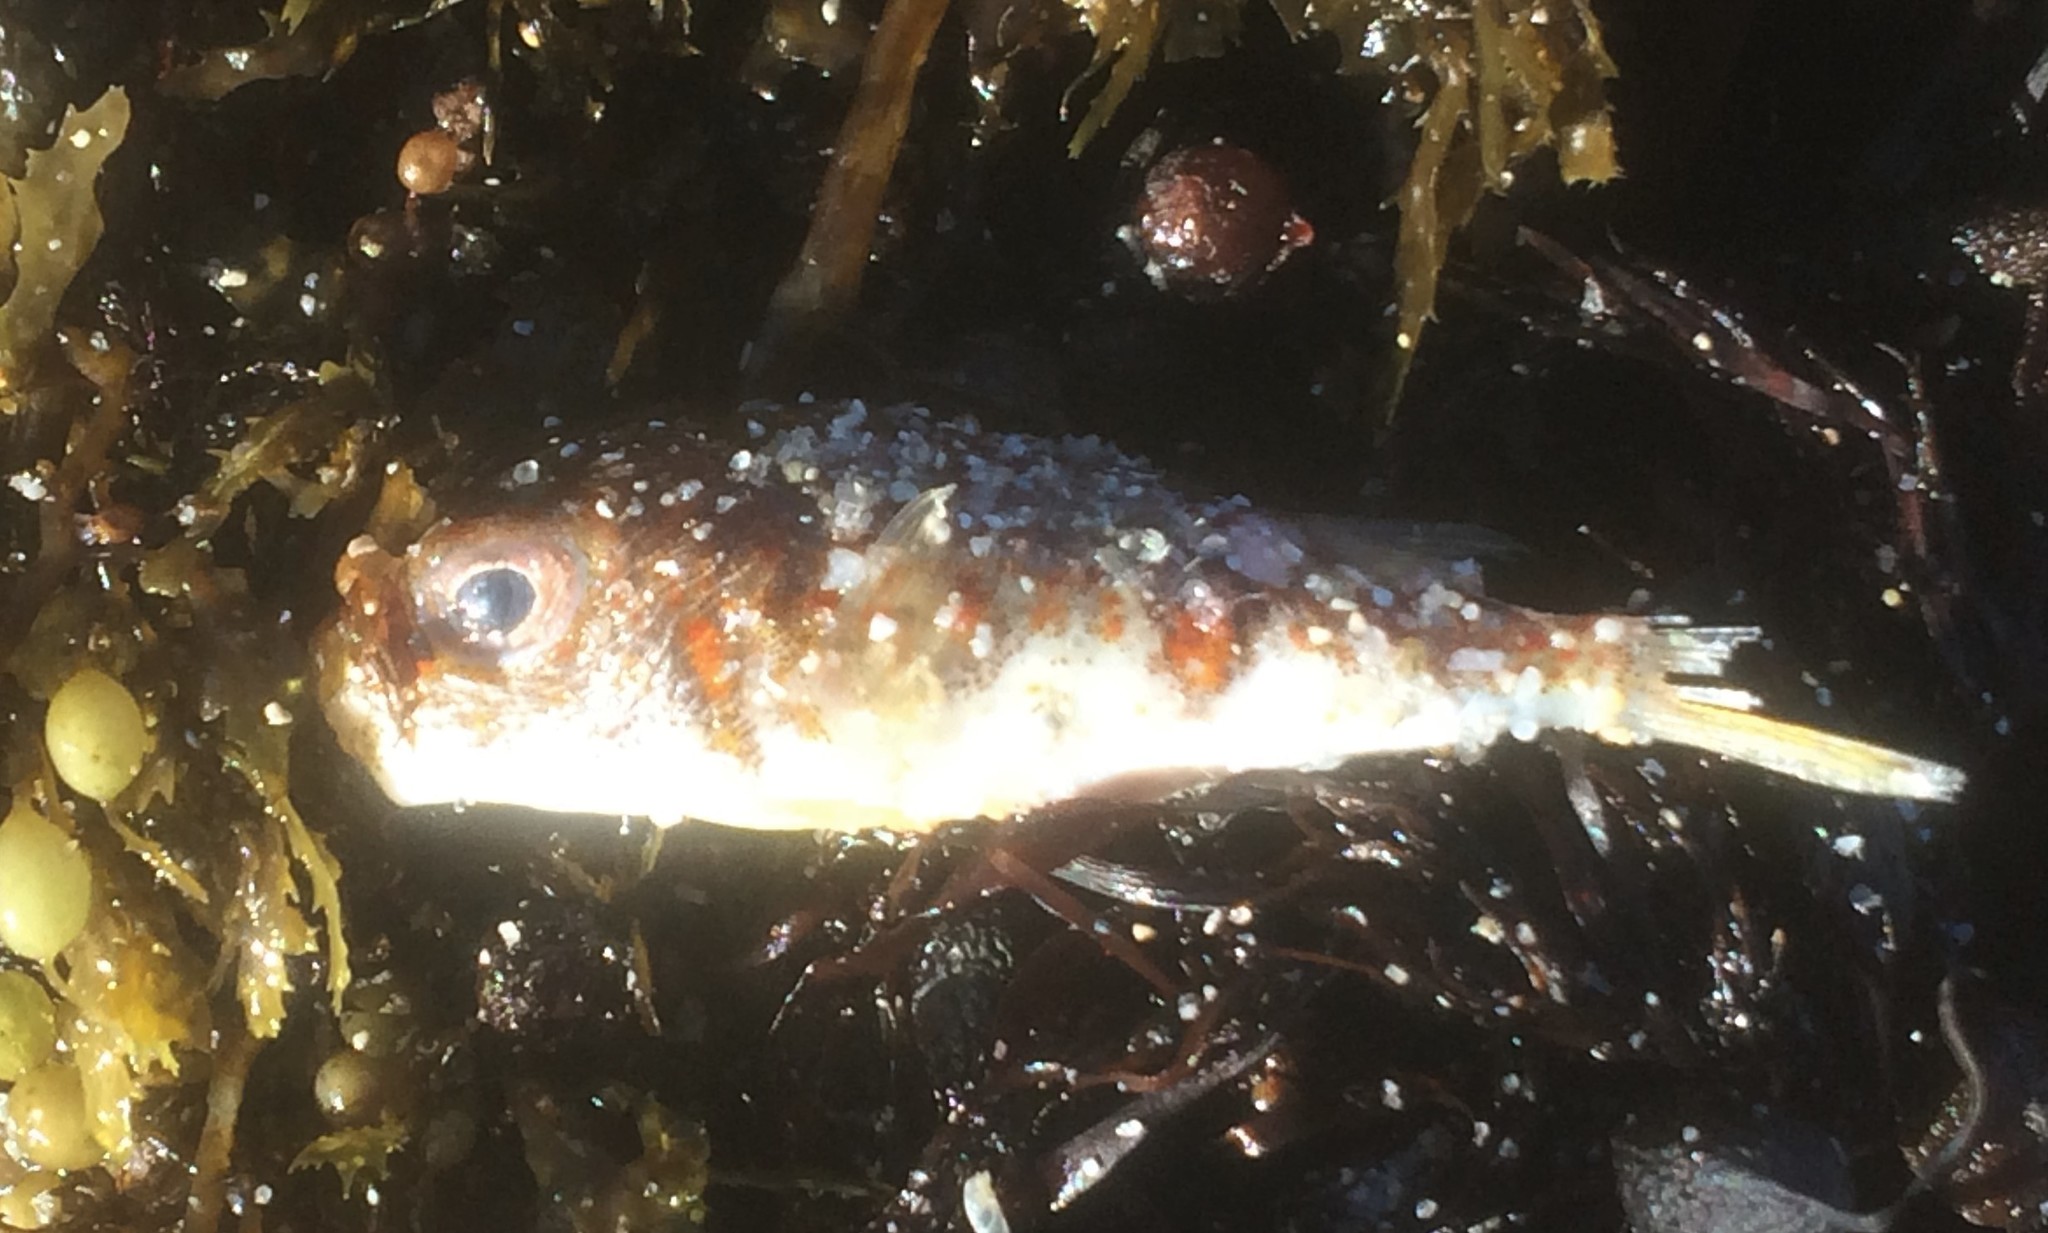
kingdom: Animalia
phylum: Chordata
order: Tetraodontiformes
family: Tetraodontidae
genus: Polyspina
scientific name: Polyspina piosae
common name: Orange-barred pufferfish
